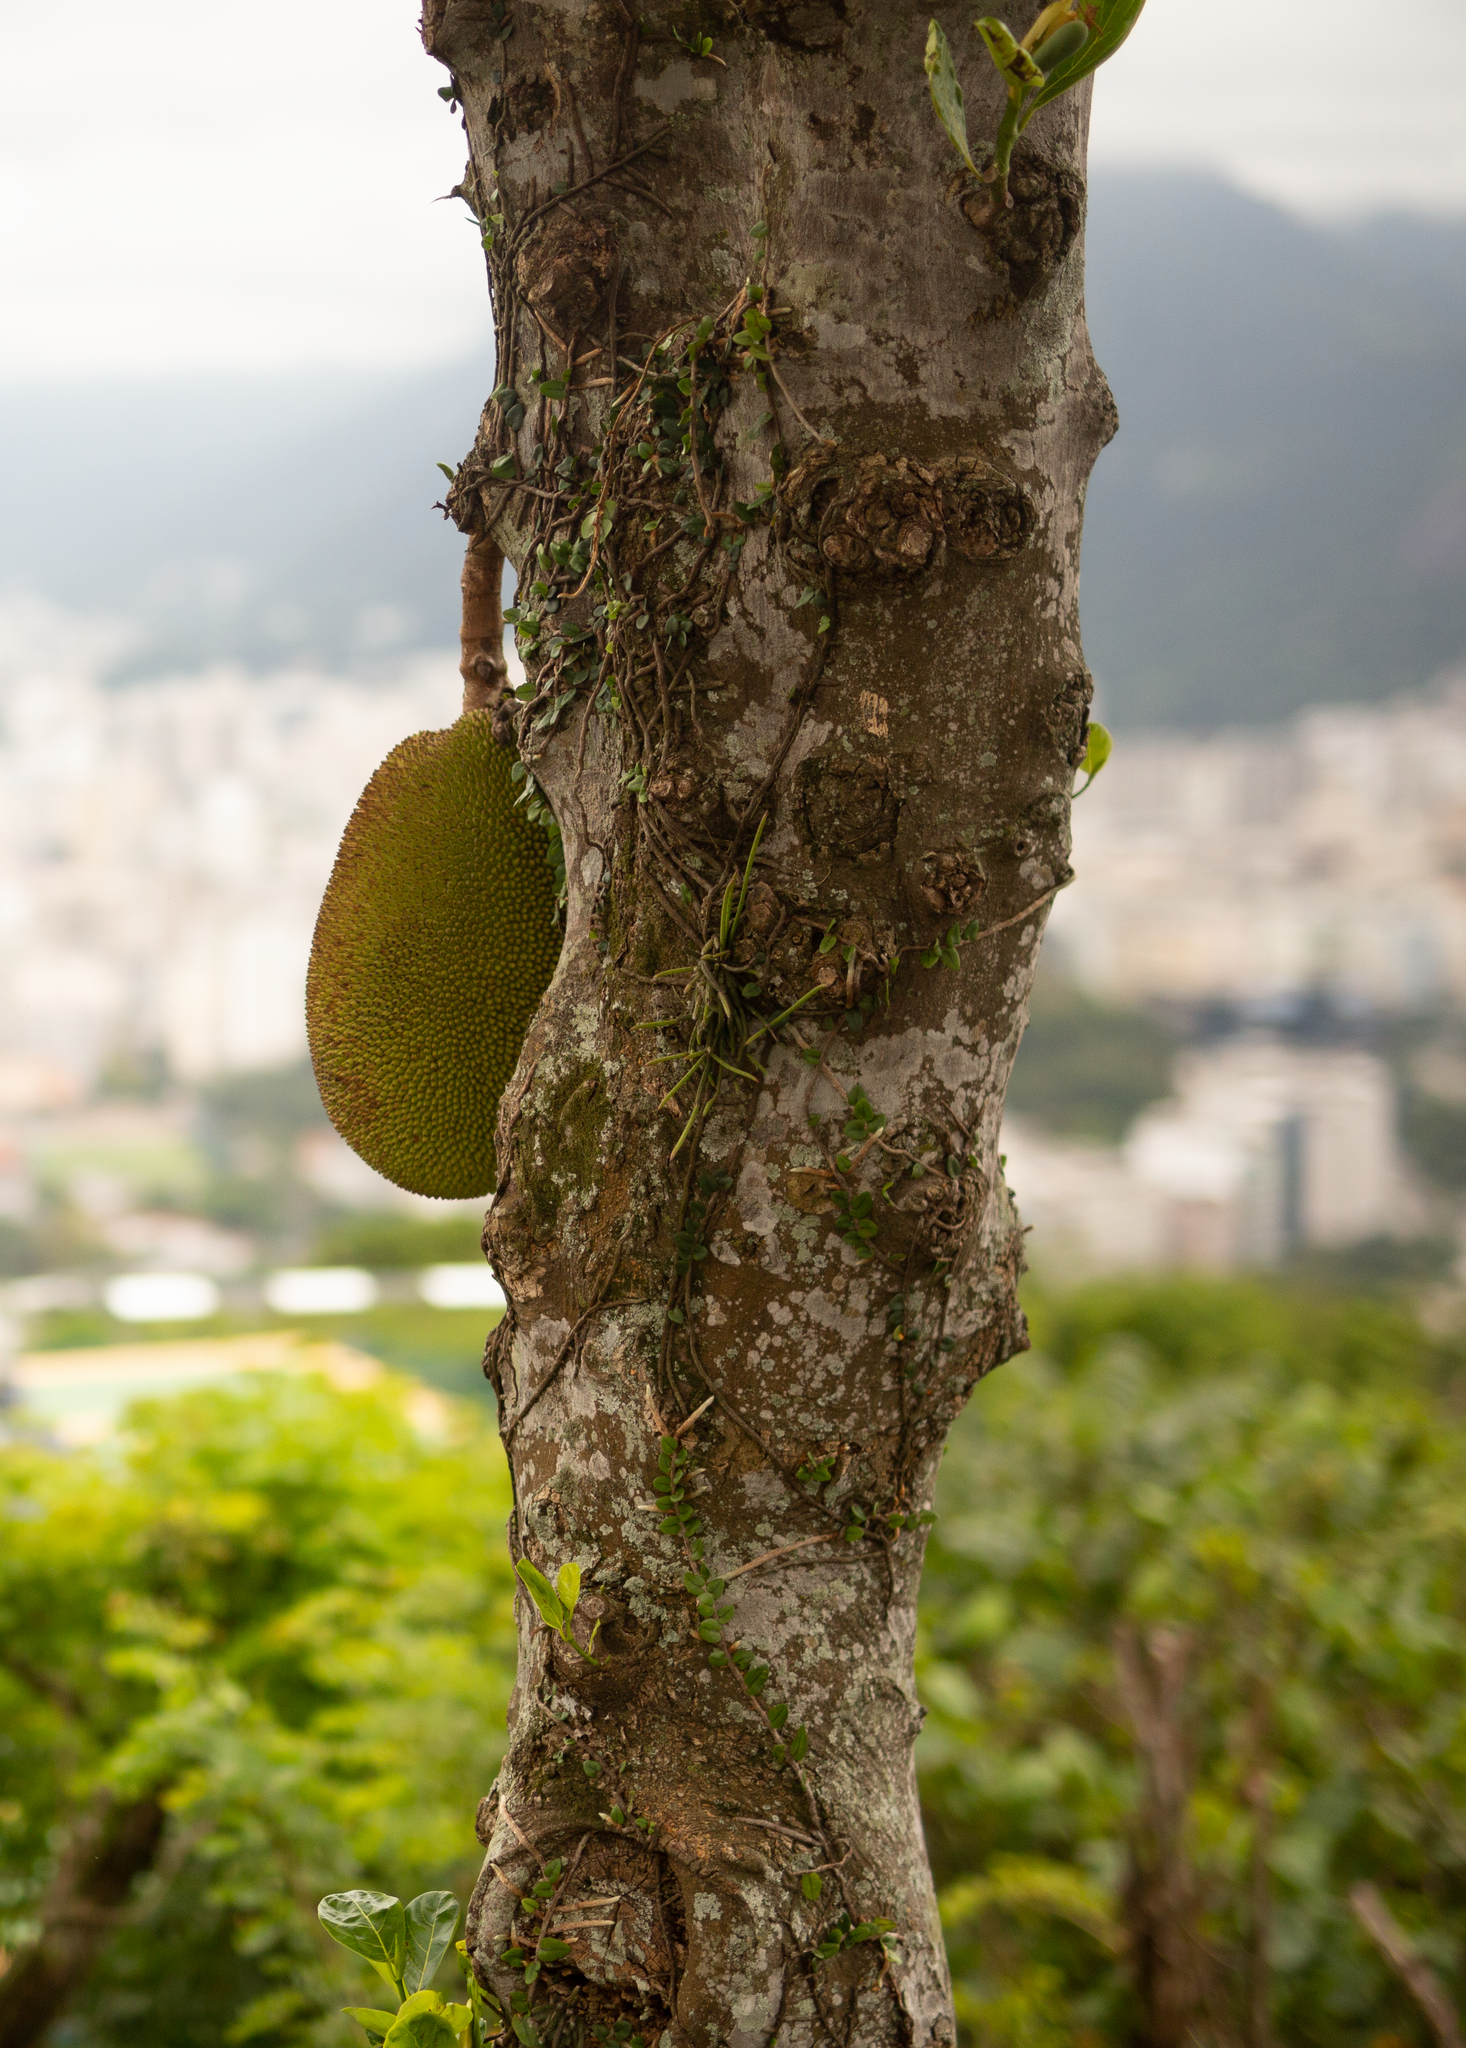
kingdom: Plantae
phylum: Tracheophyta
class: Magnoliopsida
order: Rosales
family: Moraceae
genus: Artocarpus
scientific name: Artocarpus heterophyllus
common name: Jackfruit
